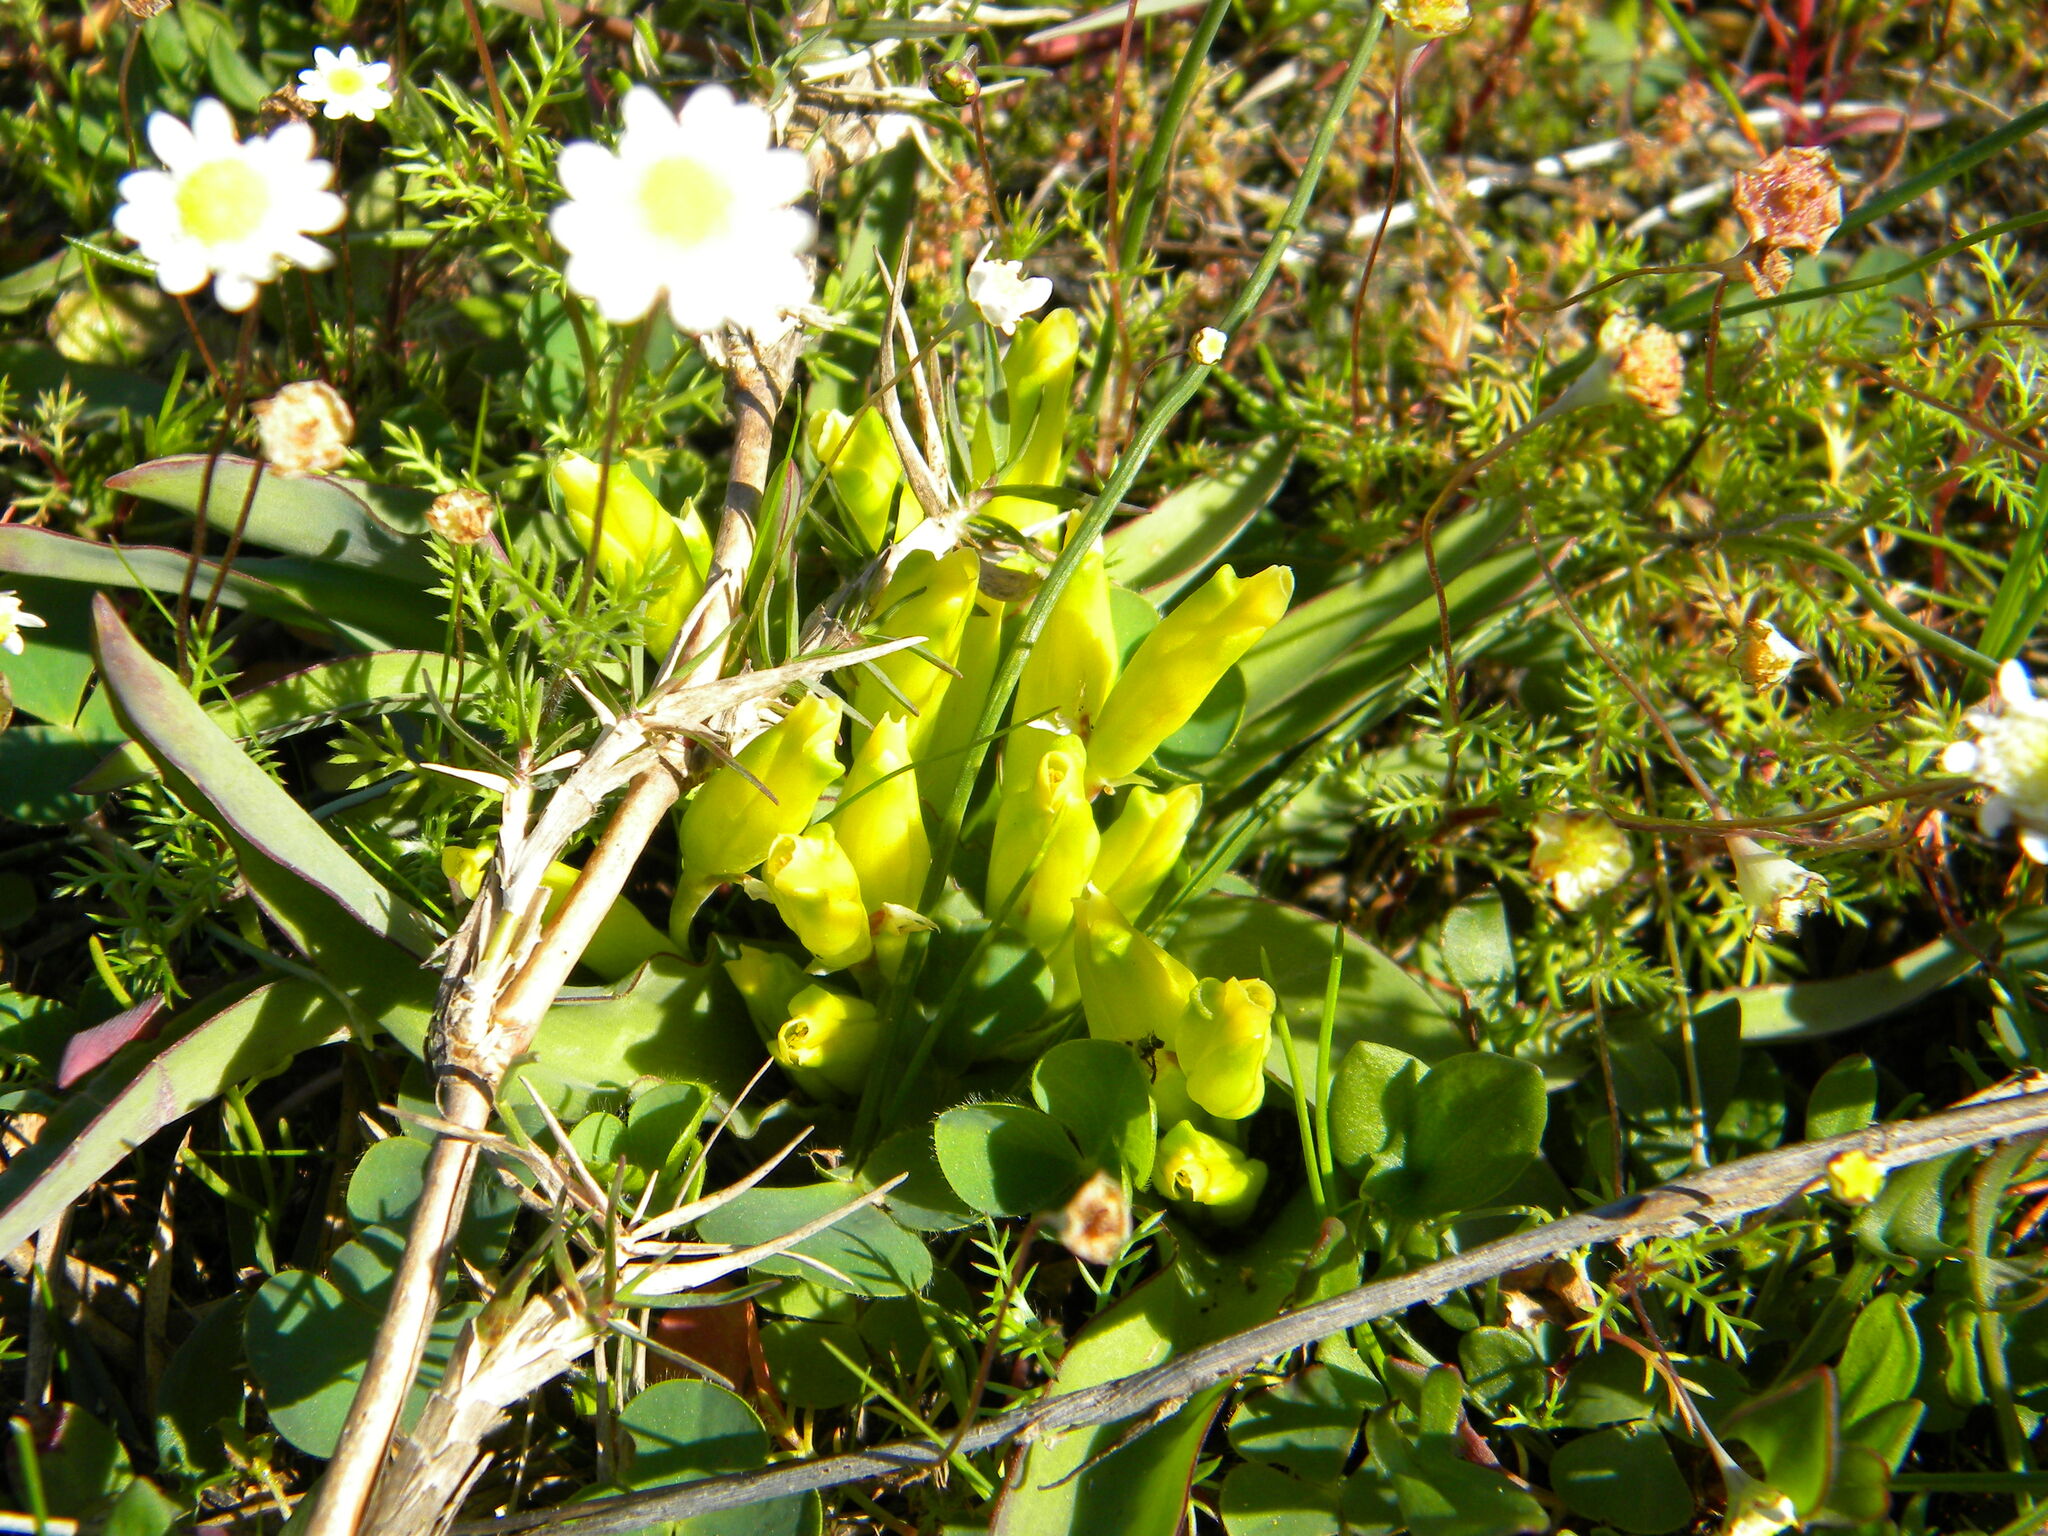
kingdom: Plantae
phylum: Tracheophyta
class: Liliopsida
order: Asparagales
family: Asparagaceae
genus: Lachenalia
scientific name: Lachenalia reflexa
